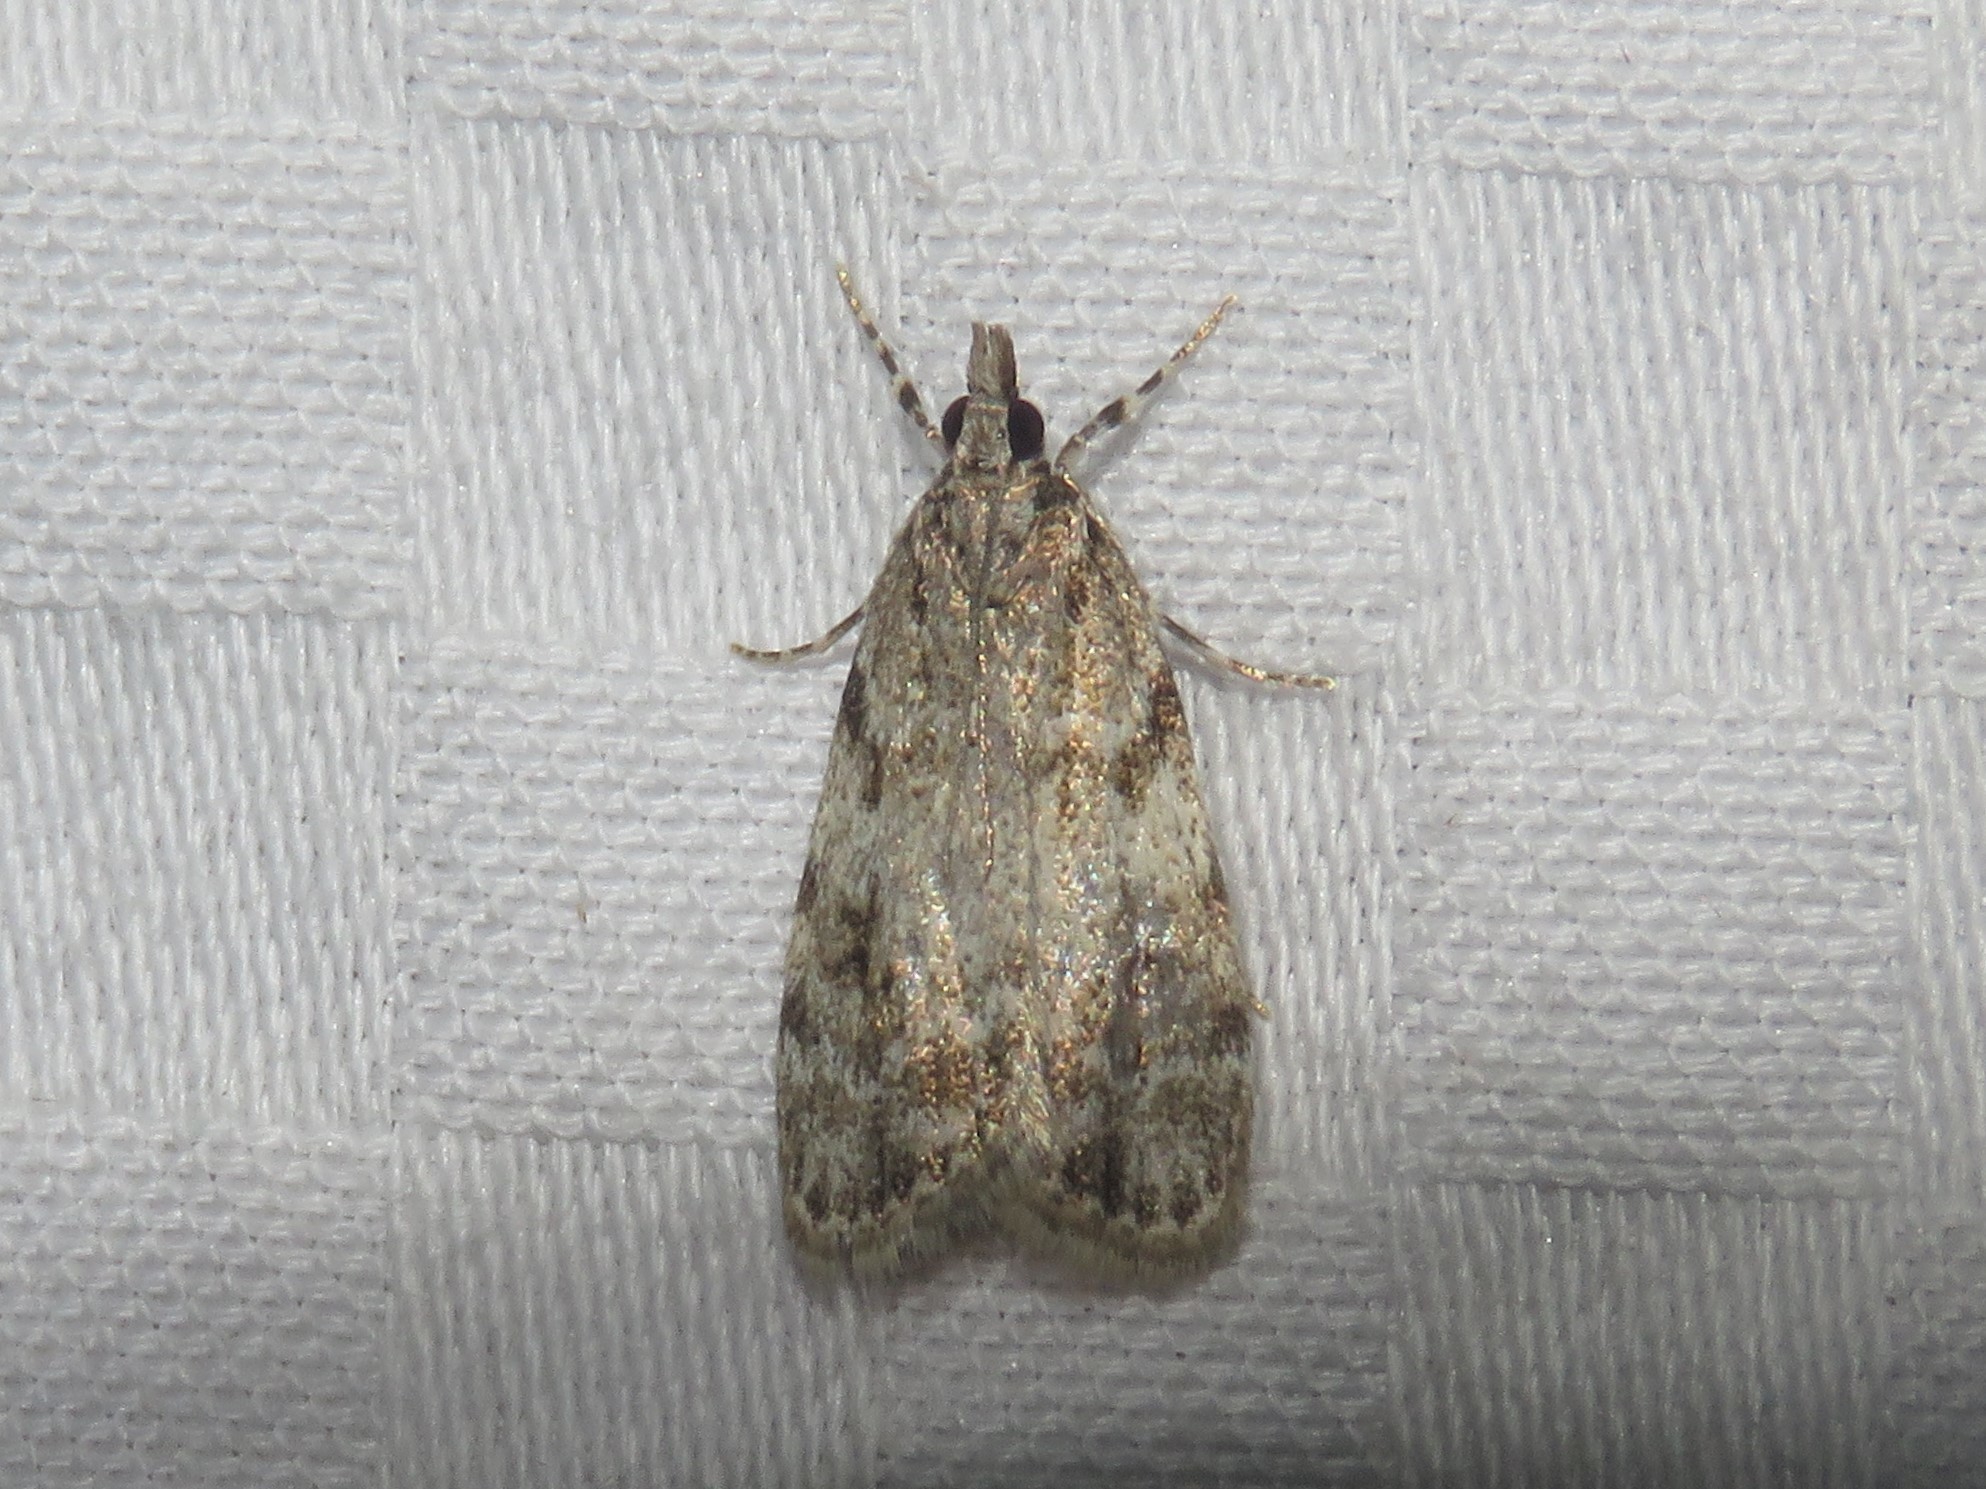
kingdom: Animalia
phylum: Arthropoda
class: Insecta
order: Lepidoptera
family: Crambidae
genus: Scoparia
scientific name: Scoparia basalis
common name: Many-spotted scoparia moth
